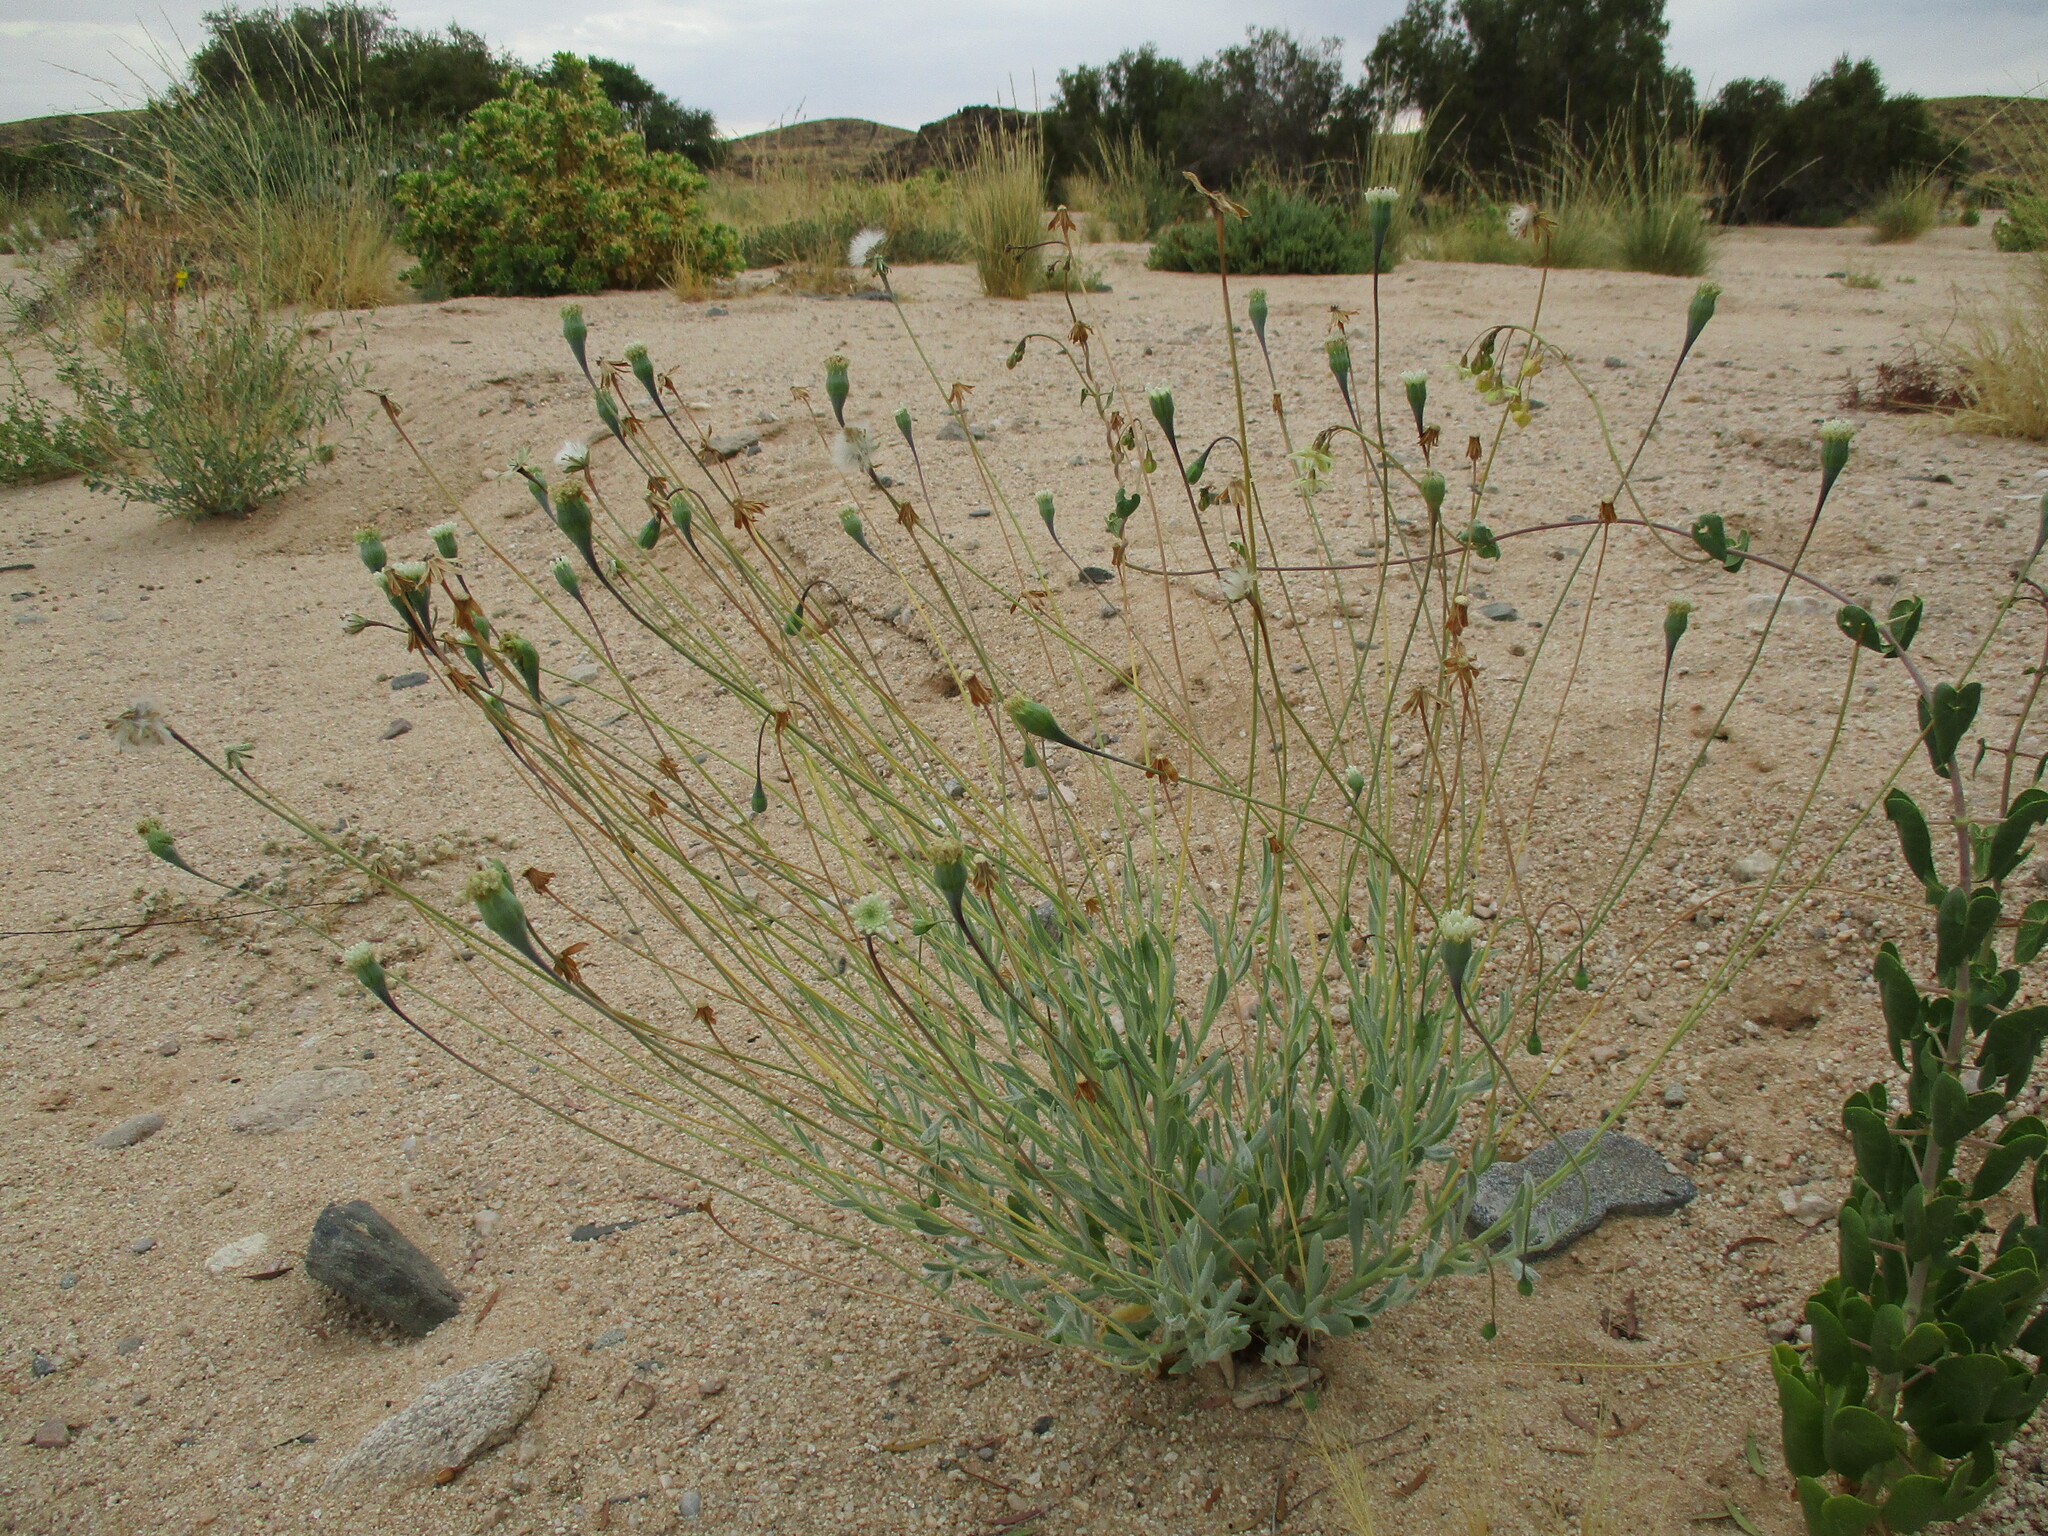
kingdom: Plantae
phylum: Tracheophyta
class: Magnoliopsida
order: Asterales
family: Asteraceae
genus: Emilia
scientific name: Emilia marlothiana
